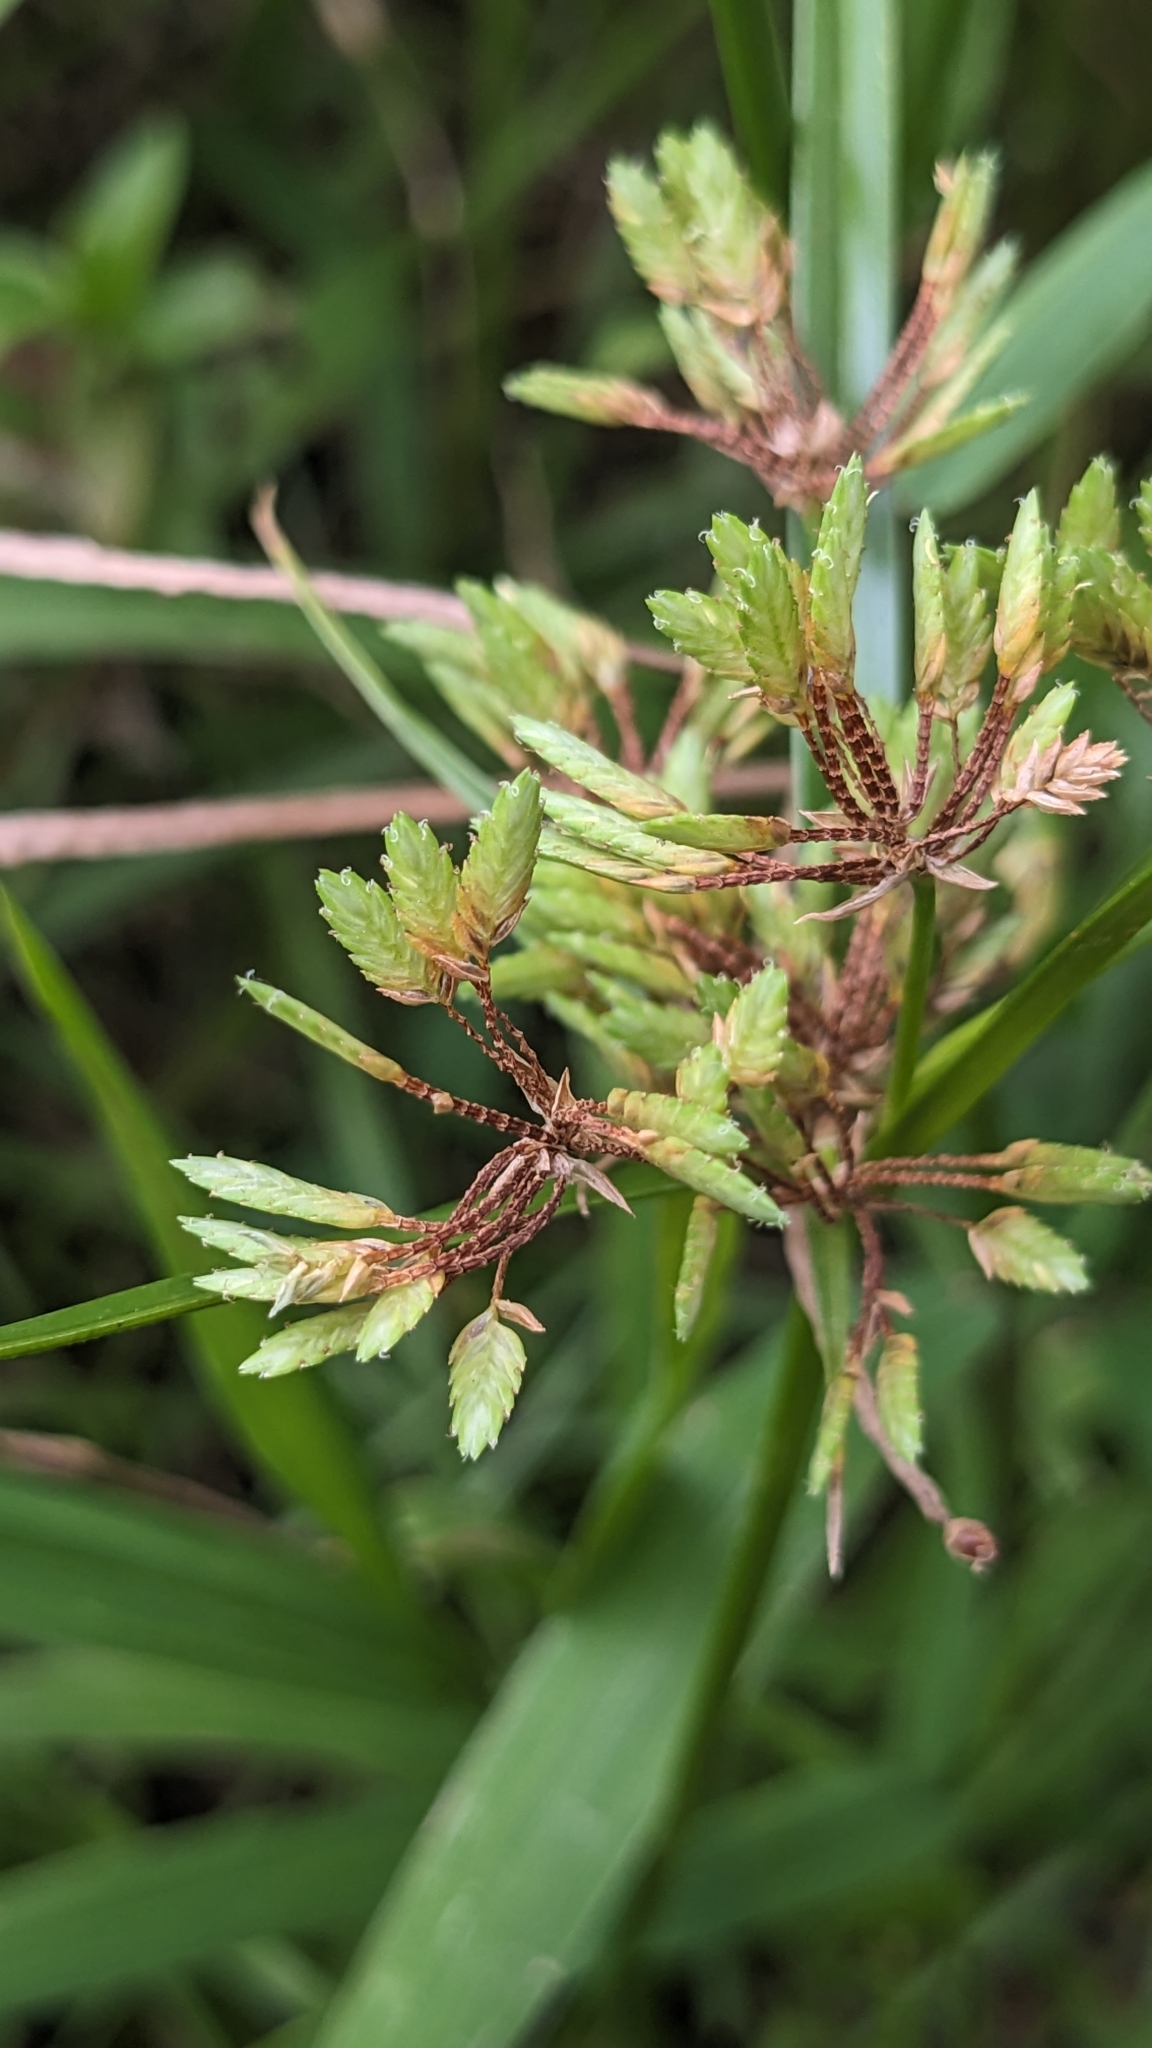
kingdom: Plantae
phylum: Tracheophyta
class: Liliopsida
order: Poales
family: Cyperaceae
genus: Cyperus
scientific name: Cyperus eragrostis
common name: Tall flatsedge
